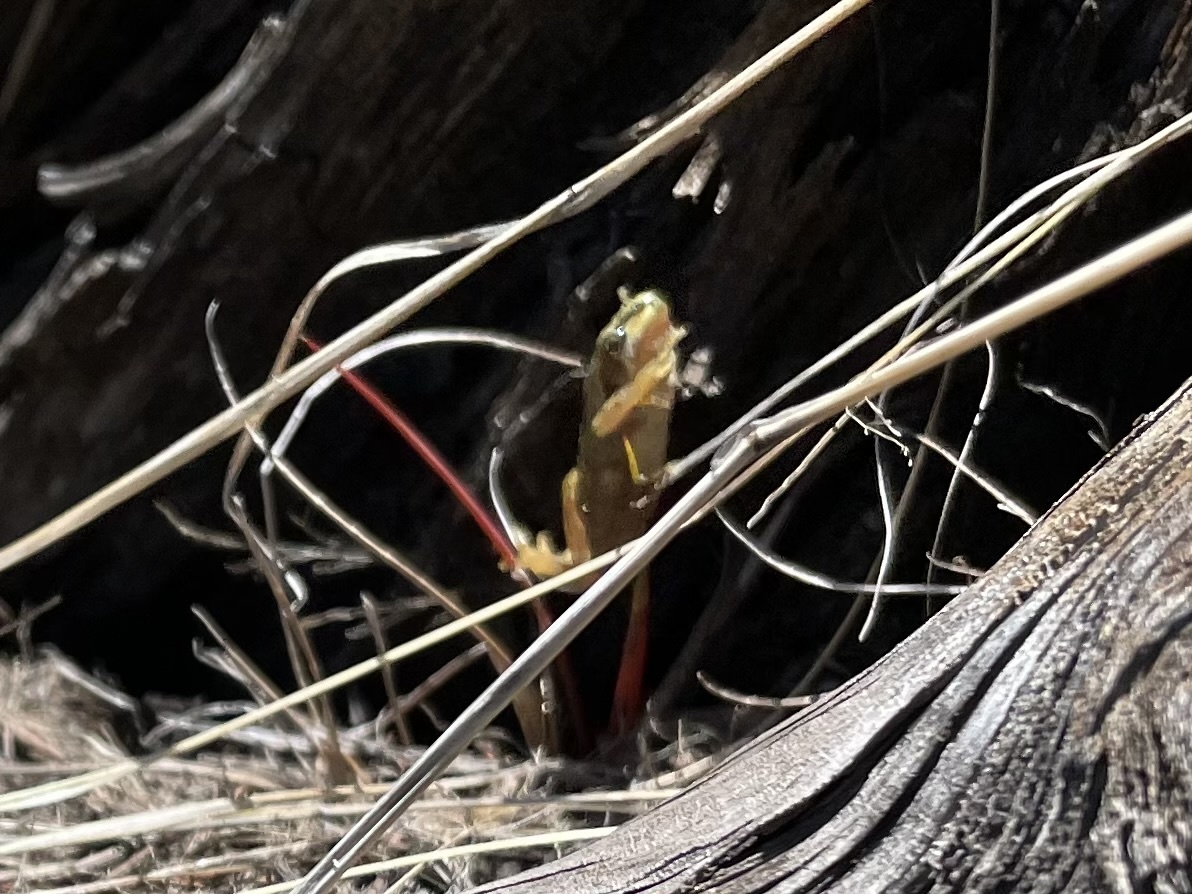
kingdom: Animalia
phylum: Chordata
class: Amphibia
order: Anura
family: Hylidae
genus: Pseudacris
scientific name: Pseudacris regilla
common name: Pacific chorus frog
